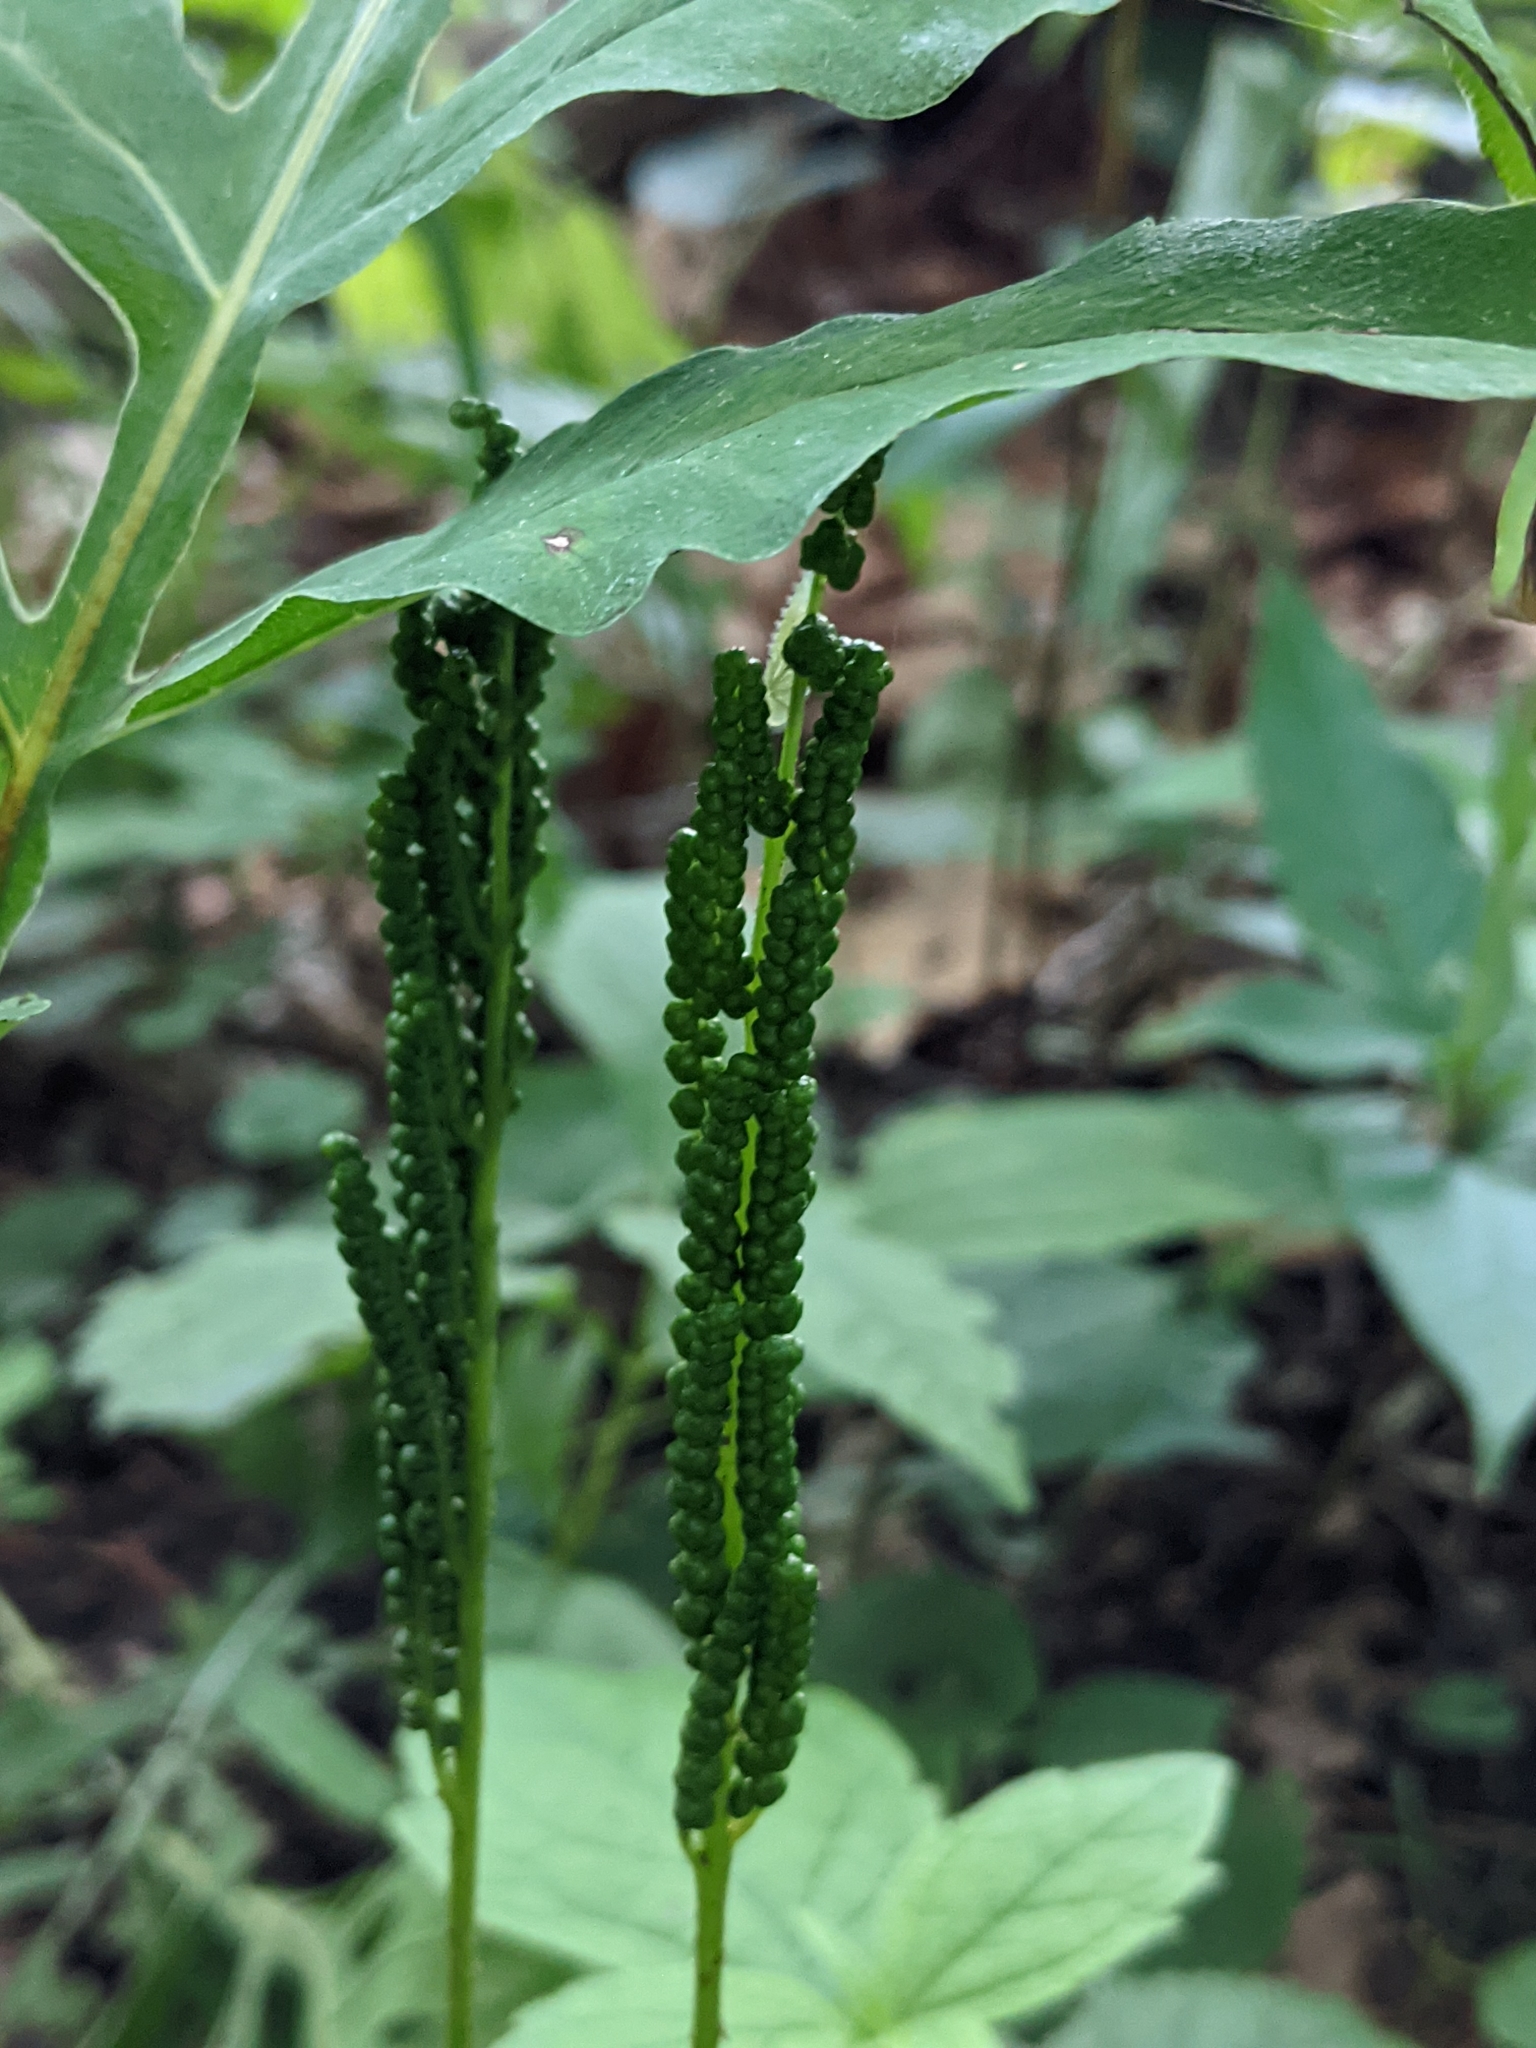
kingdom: Plantae
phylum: Tracheophyta
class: Polypodiopsida
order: Polypodiales
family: Onocleaceae
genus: Onoclea
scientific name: Onoclea sensibilis
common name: Sensitive fern
